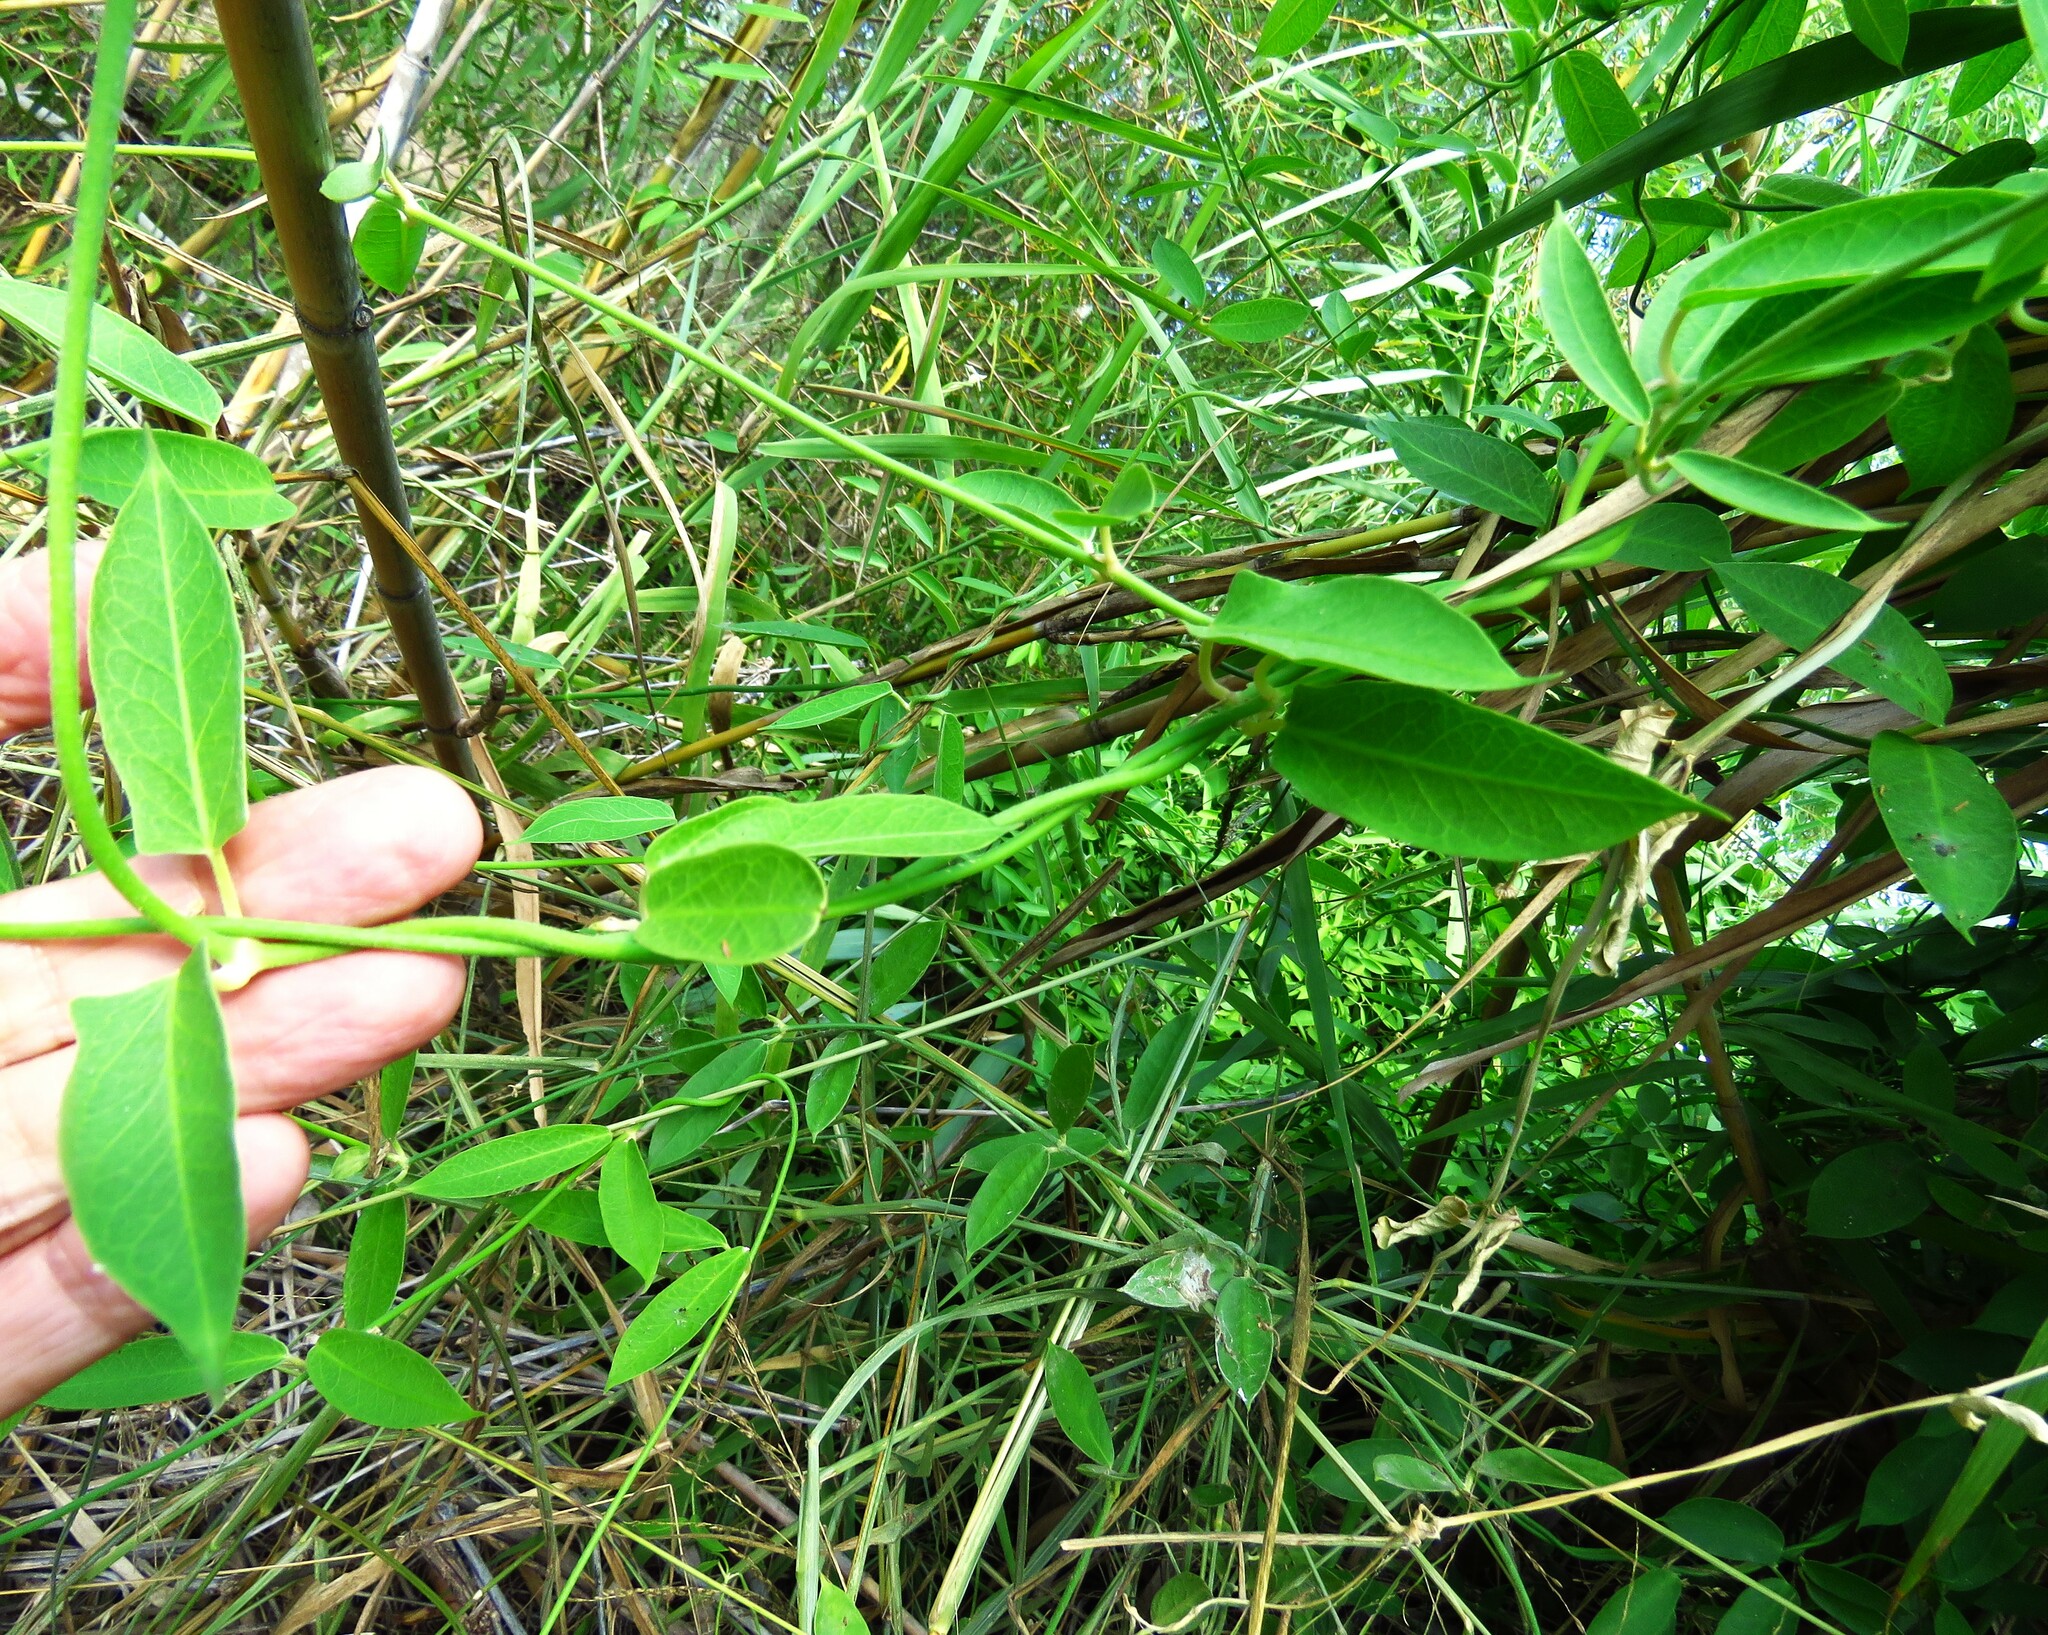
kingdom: Plantae
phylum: Tracheophyta
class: Magnoliopsida
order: Gentianales
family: Apocynaceae
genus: Funastrum
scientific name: Funastrum clausum
